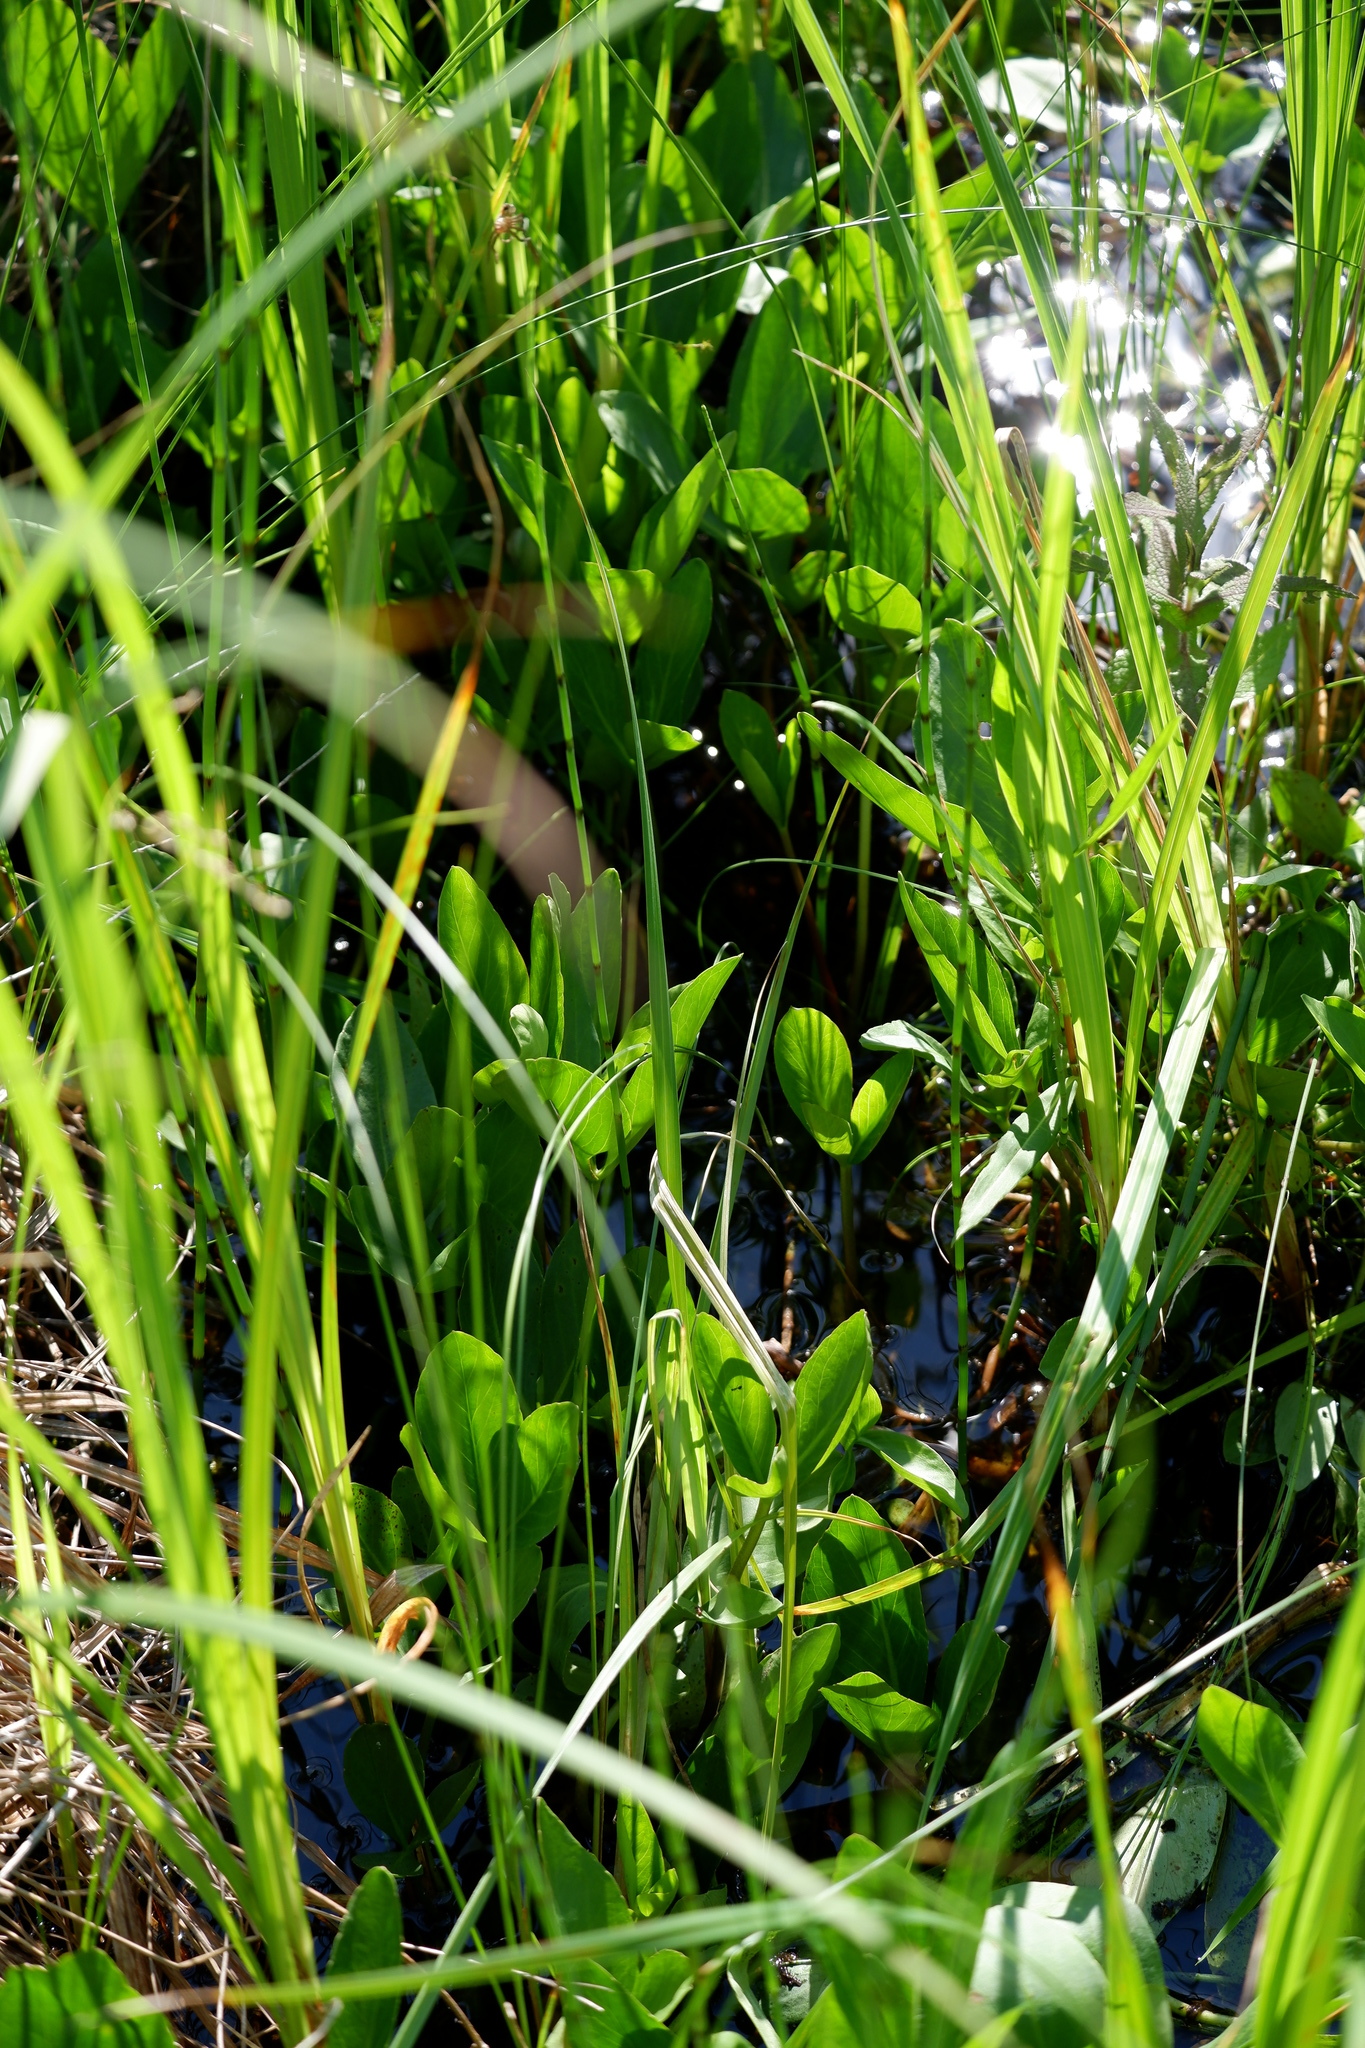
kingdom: Plantae
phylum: Tracheophyta
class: Magnoliopsida
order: Asterales
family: Menyanthaceae
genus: Menyanthes
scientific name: Menyanthes trifoliata
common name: Bogbean
